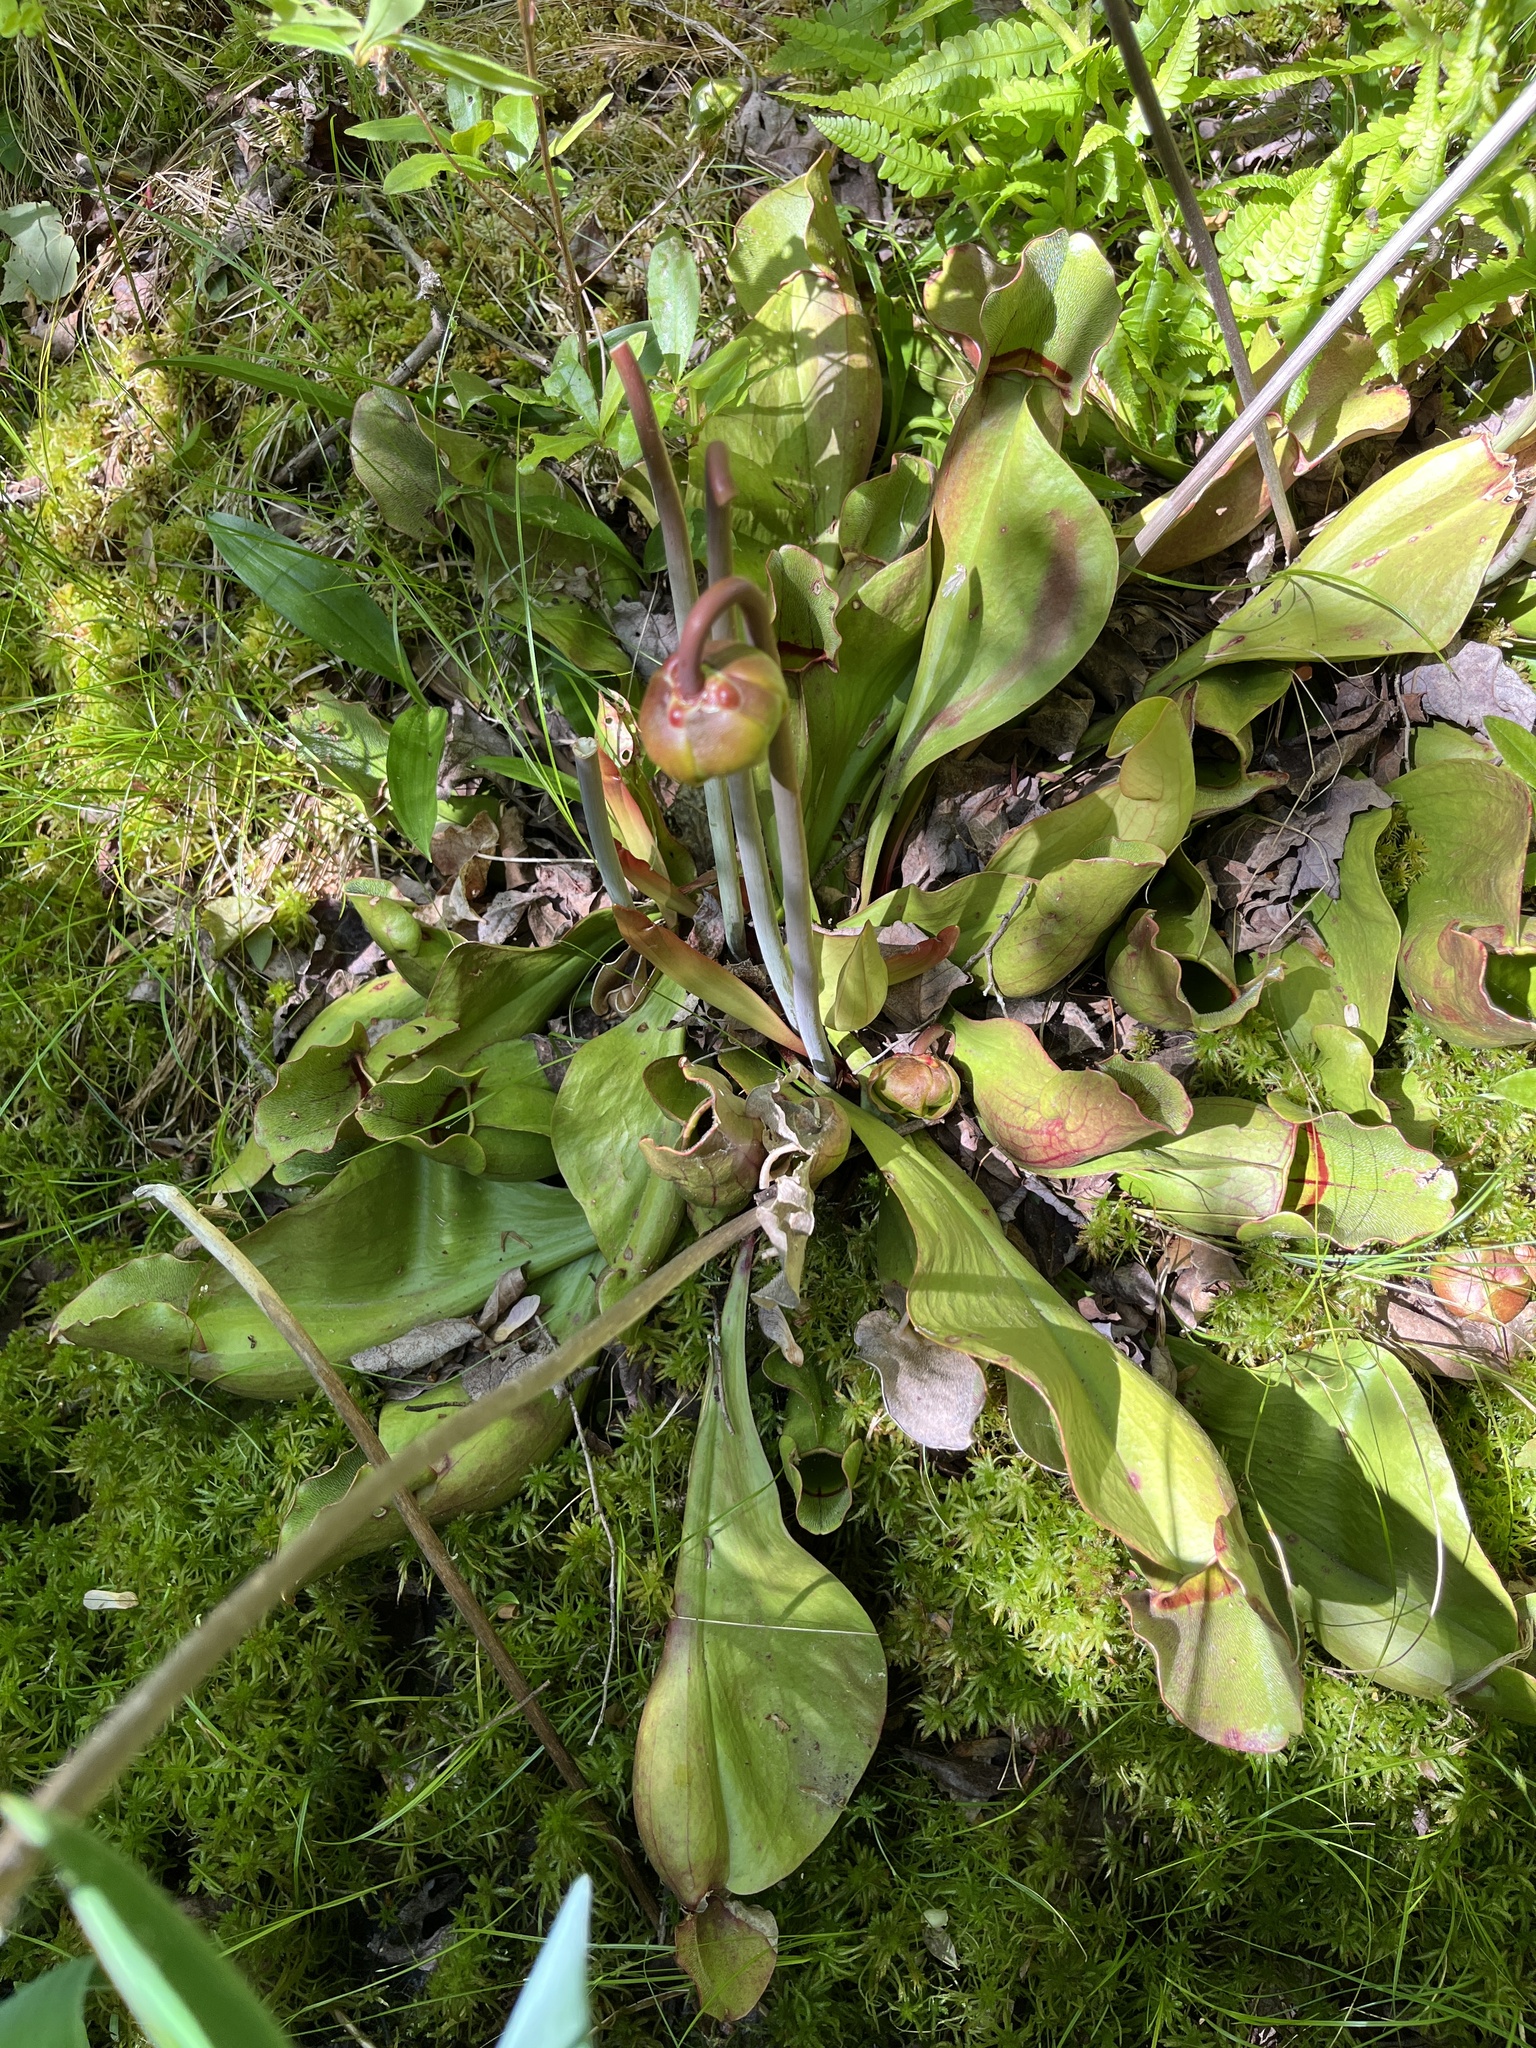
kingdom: Plantae
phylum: Tracheophyta
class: Magnoliopsida
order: Ericales
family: Sarraceniaceae
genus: Sarracenia
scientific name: Sarracenia purpurea
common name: Pitcherplant
